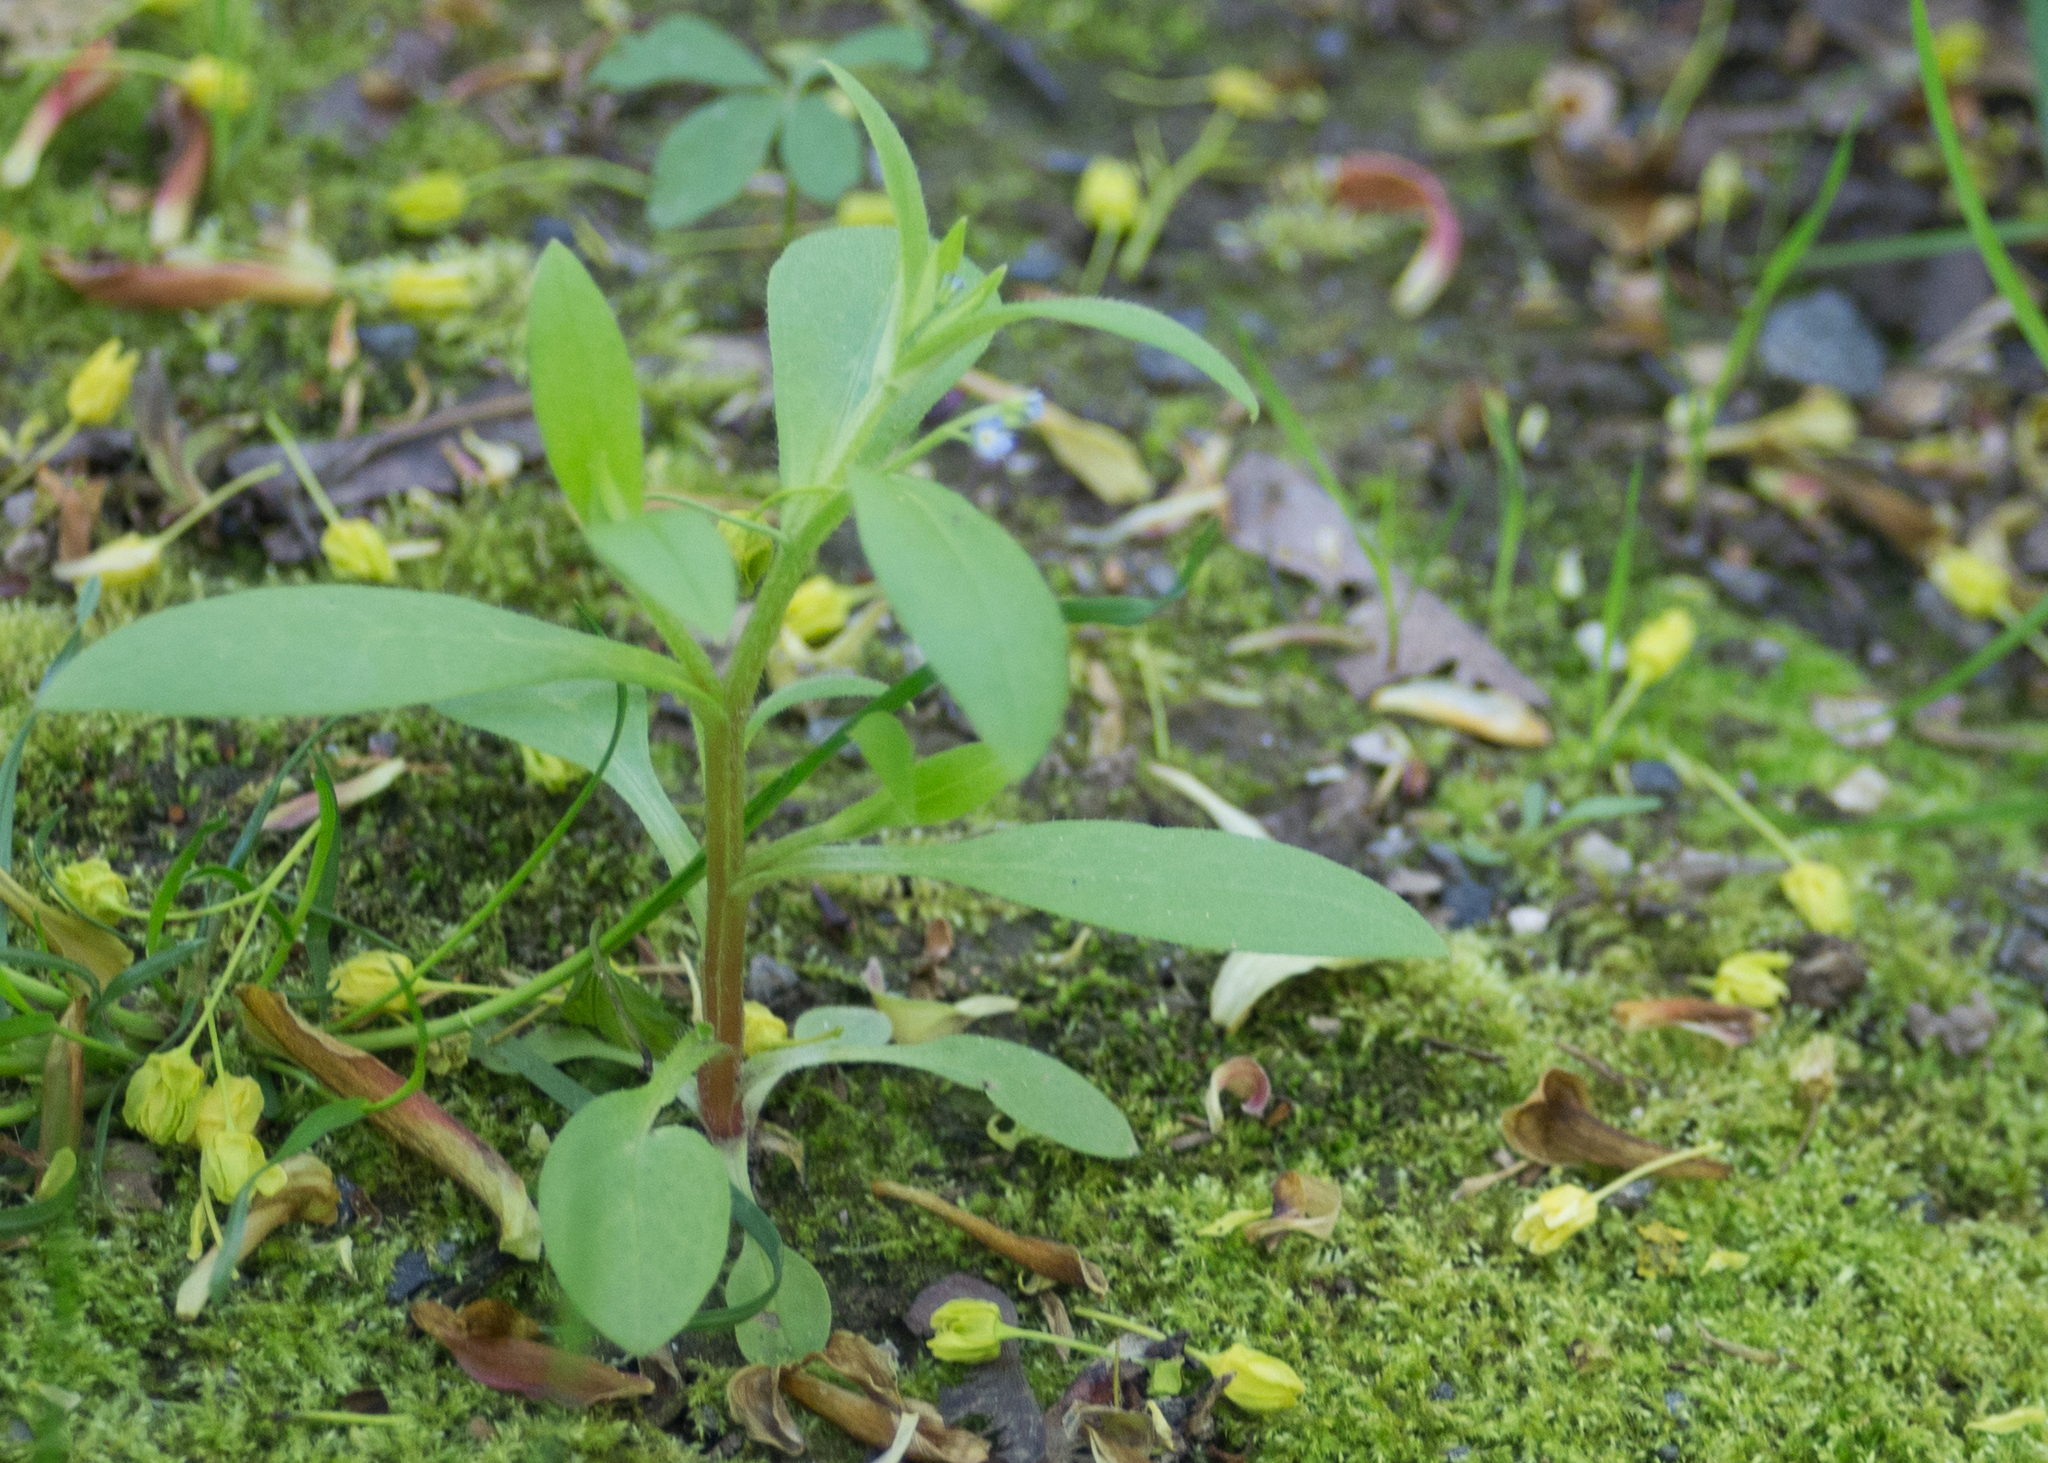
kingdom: Plantae
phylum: Tracheophyta
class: Magnoliopsida
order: Boraginales
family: Boraginaceae
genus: Myosotis
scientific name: Myosotis sparsiflora
